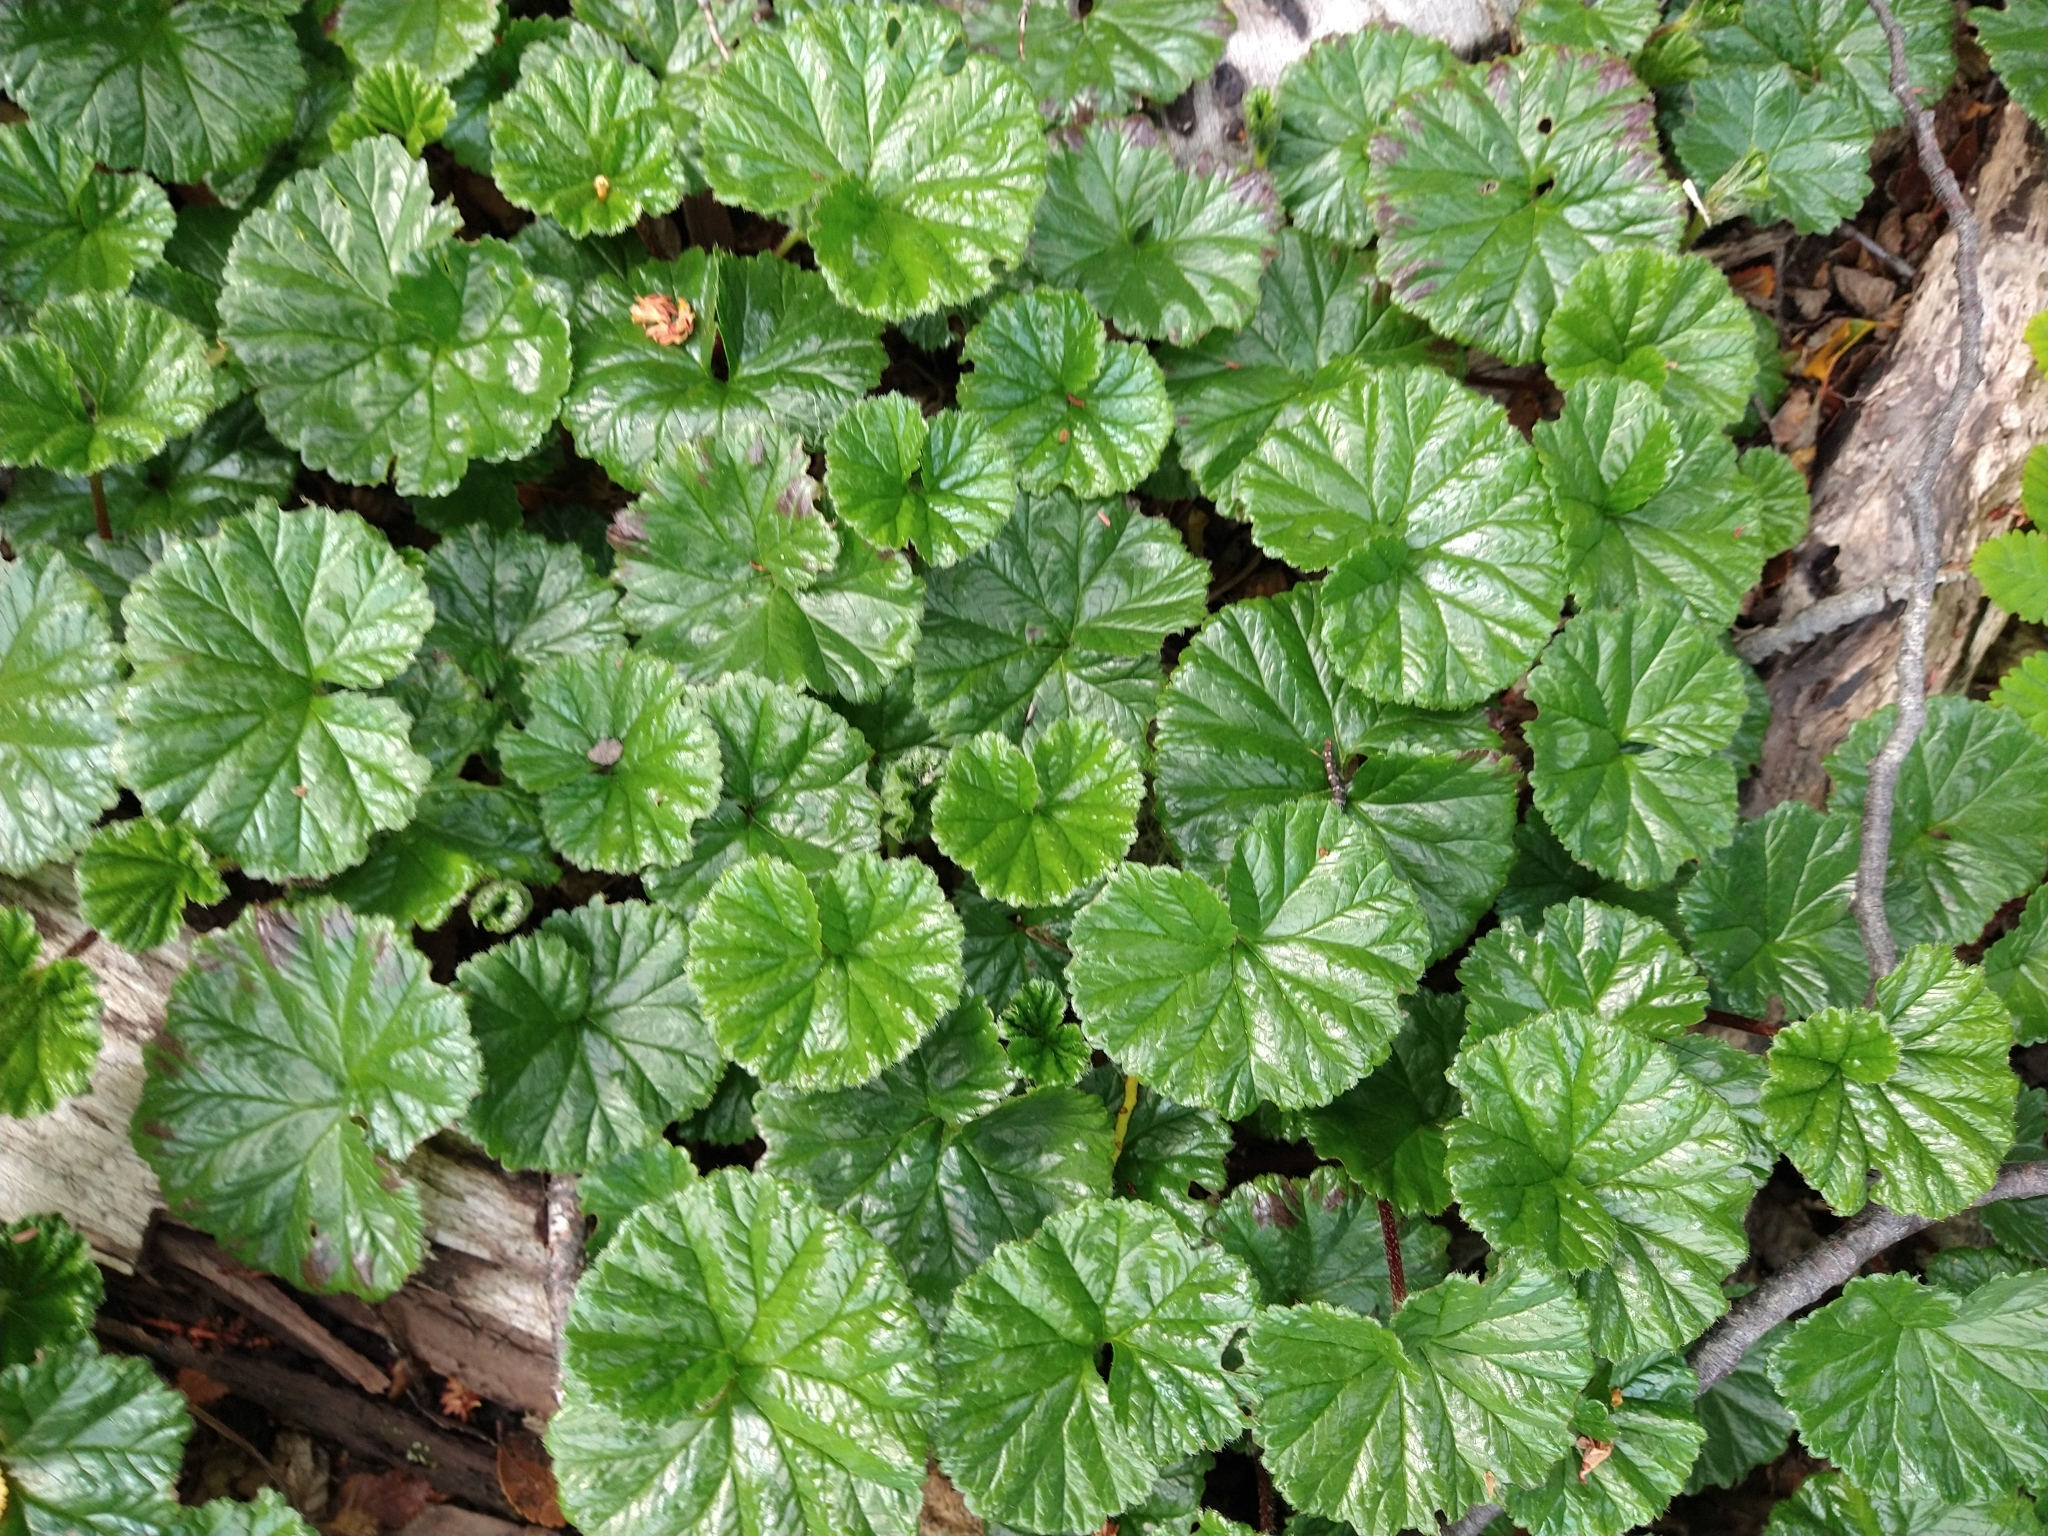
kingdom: Plantae
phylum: Tracheophyta
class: Magnoliopsida
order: Gunnerales
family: Gunneraceae
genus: Gunnera
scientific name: Gunnera magellanica
